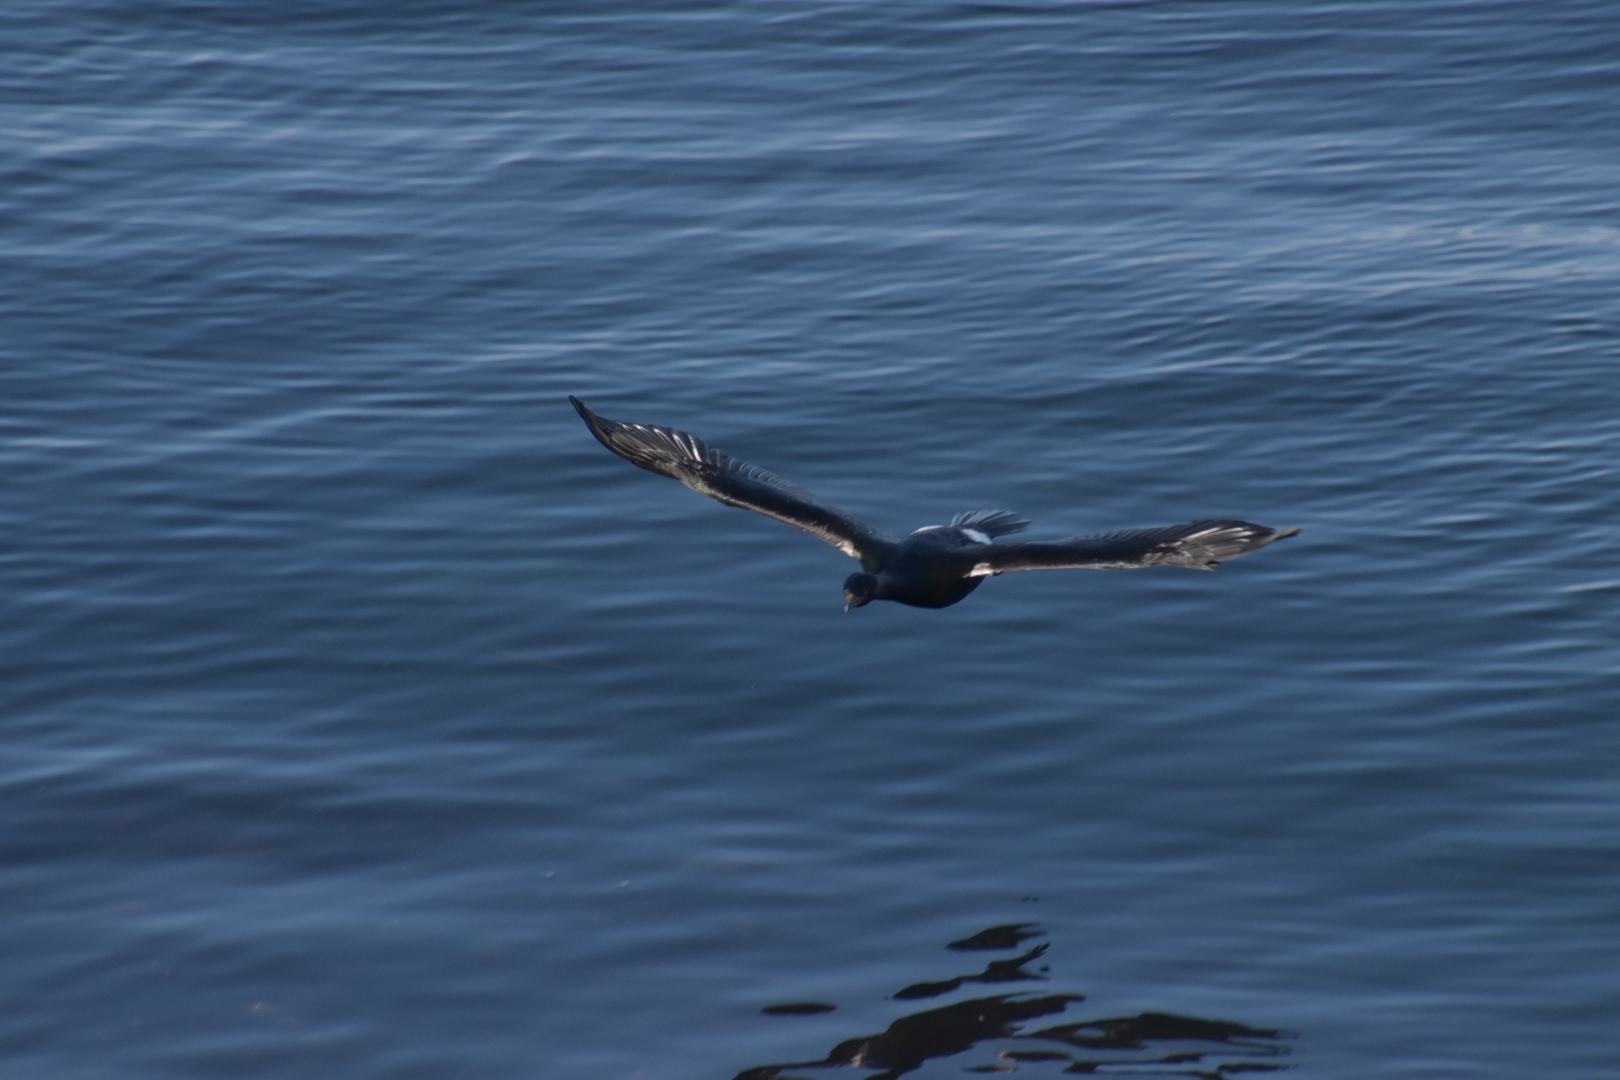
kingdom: Animalia
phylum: Chordata
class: Aves
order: Suliformes
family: Phalacrocoracidae
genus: Phalacrocorax
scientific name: Phalacrocorax pelagicus
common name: Pelagic cormorant
